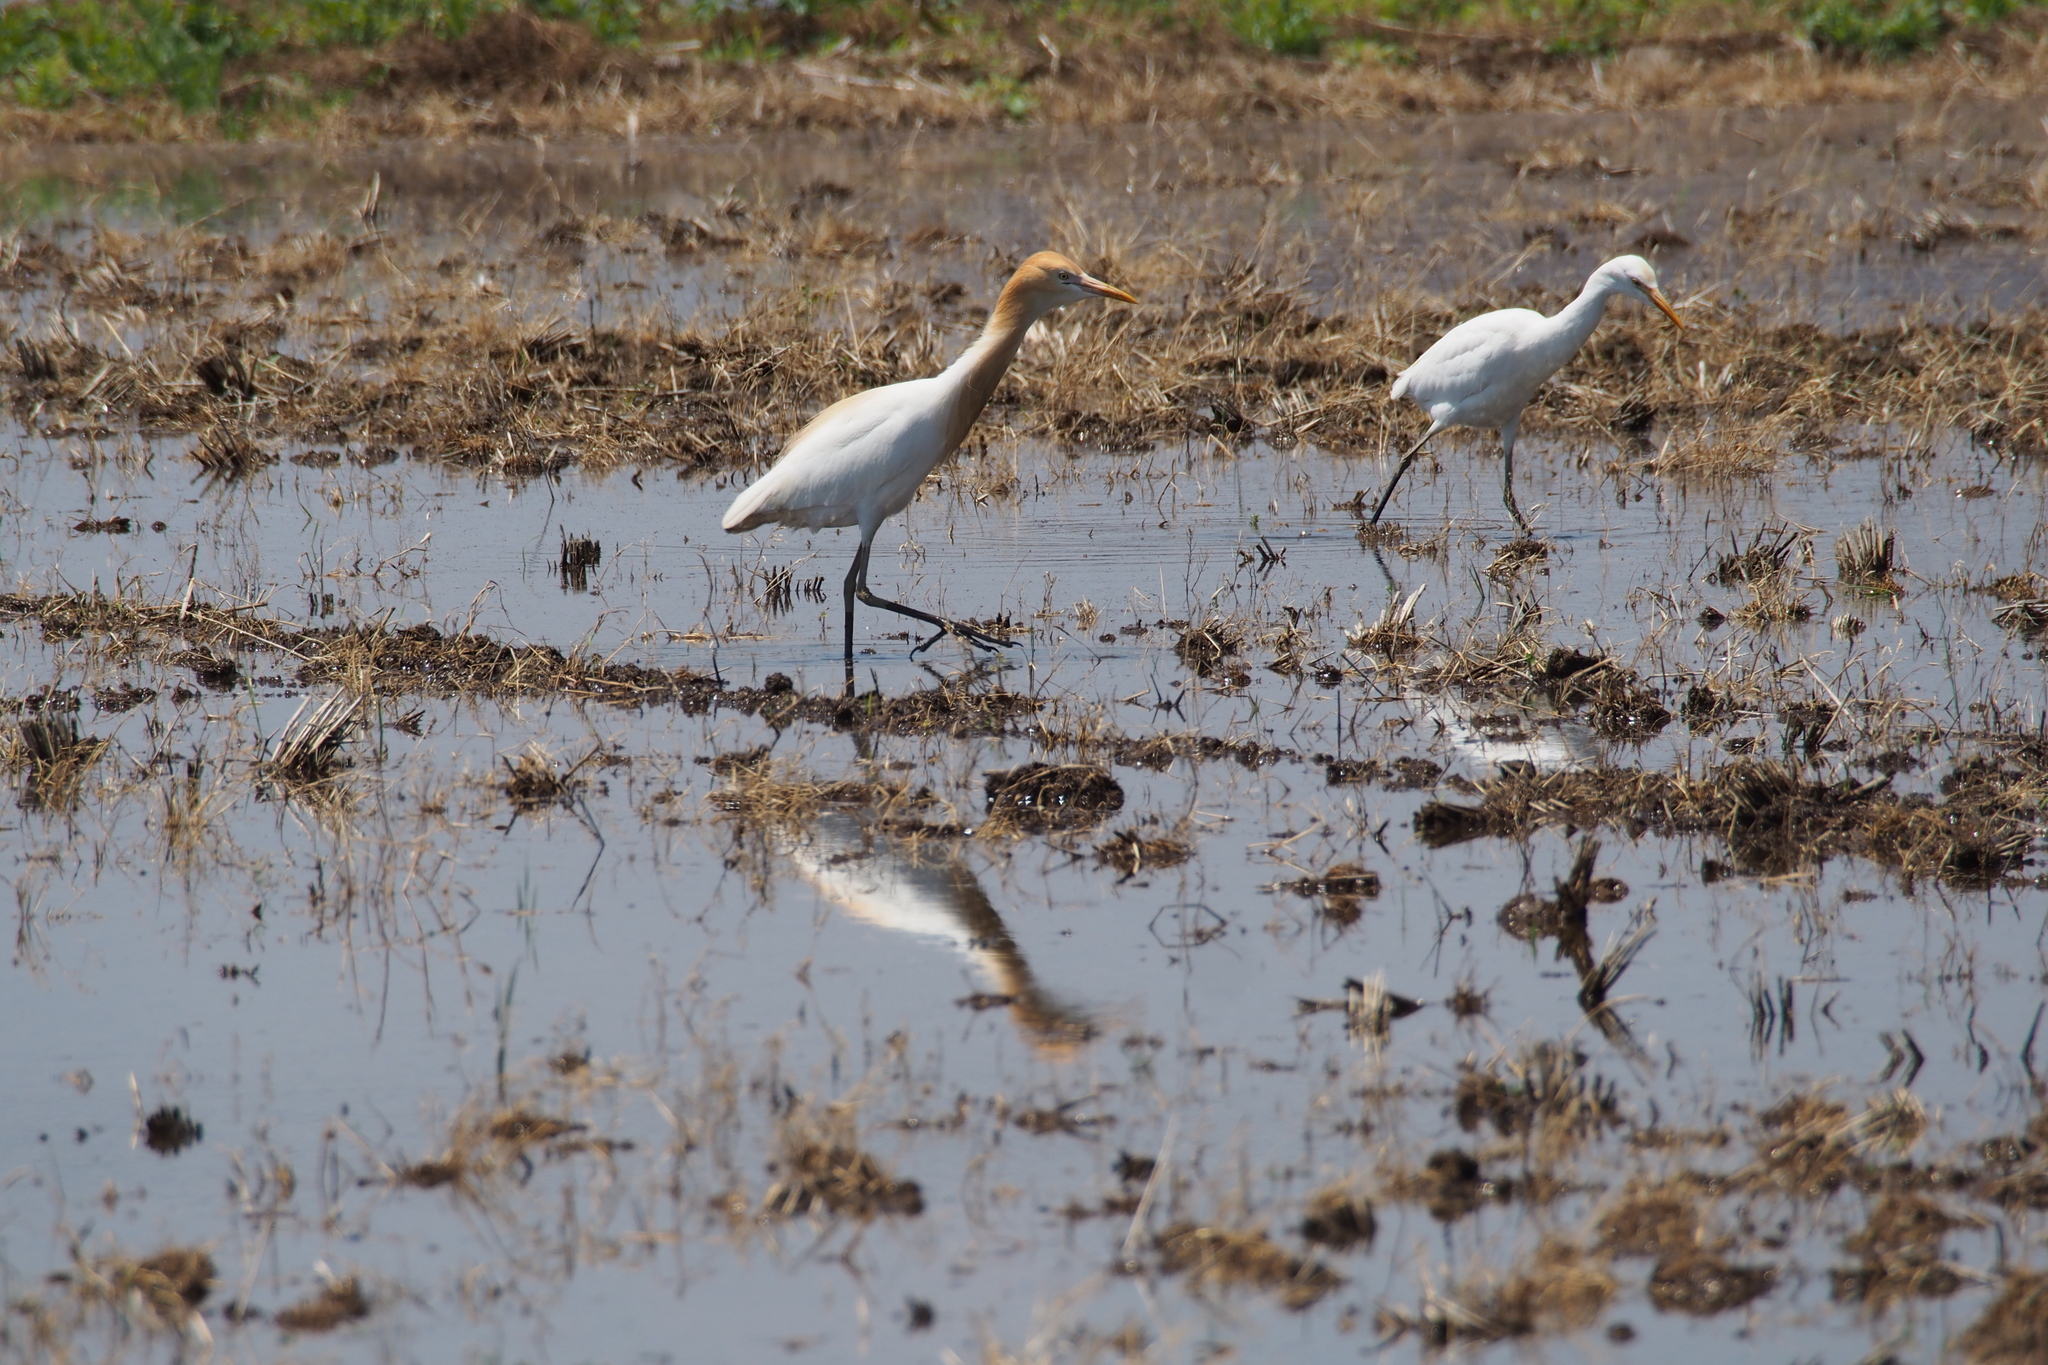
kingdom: Animalia
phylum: Chordata
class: Aves
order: Pelecaniformes
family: Ardeidae
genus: Bubulcus
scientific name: Bubulcus coromandus
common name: Eastern cattle egret
